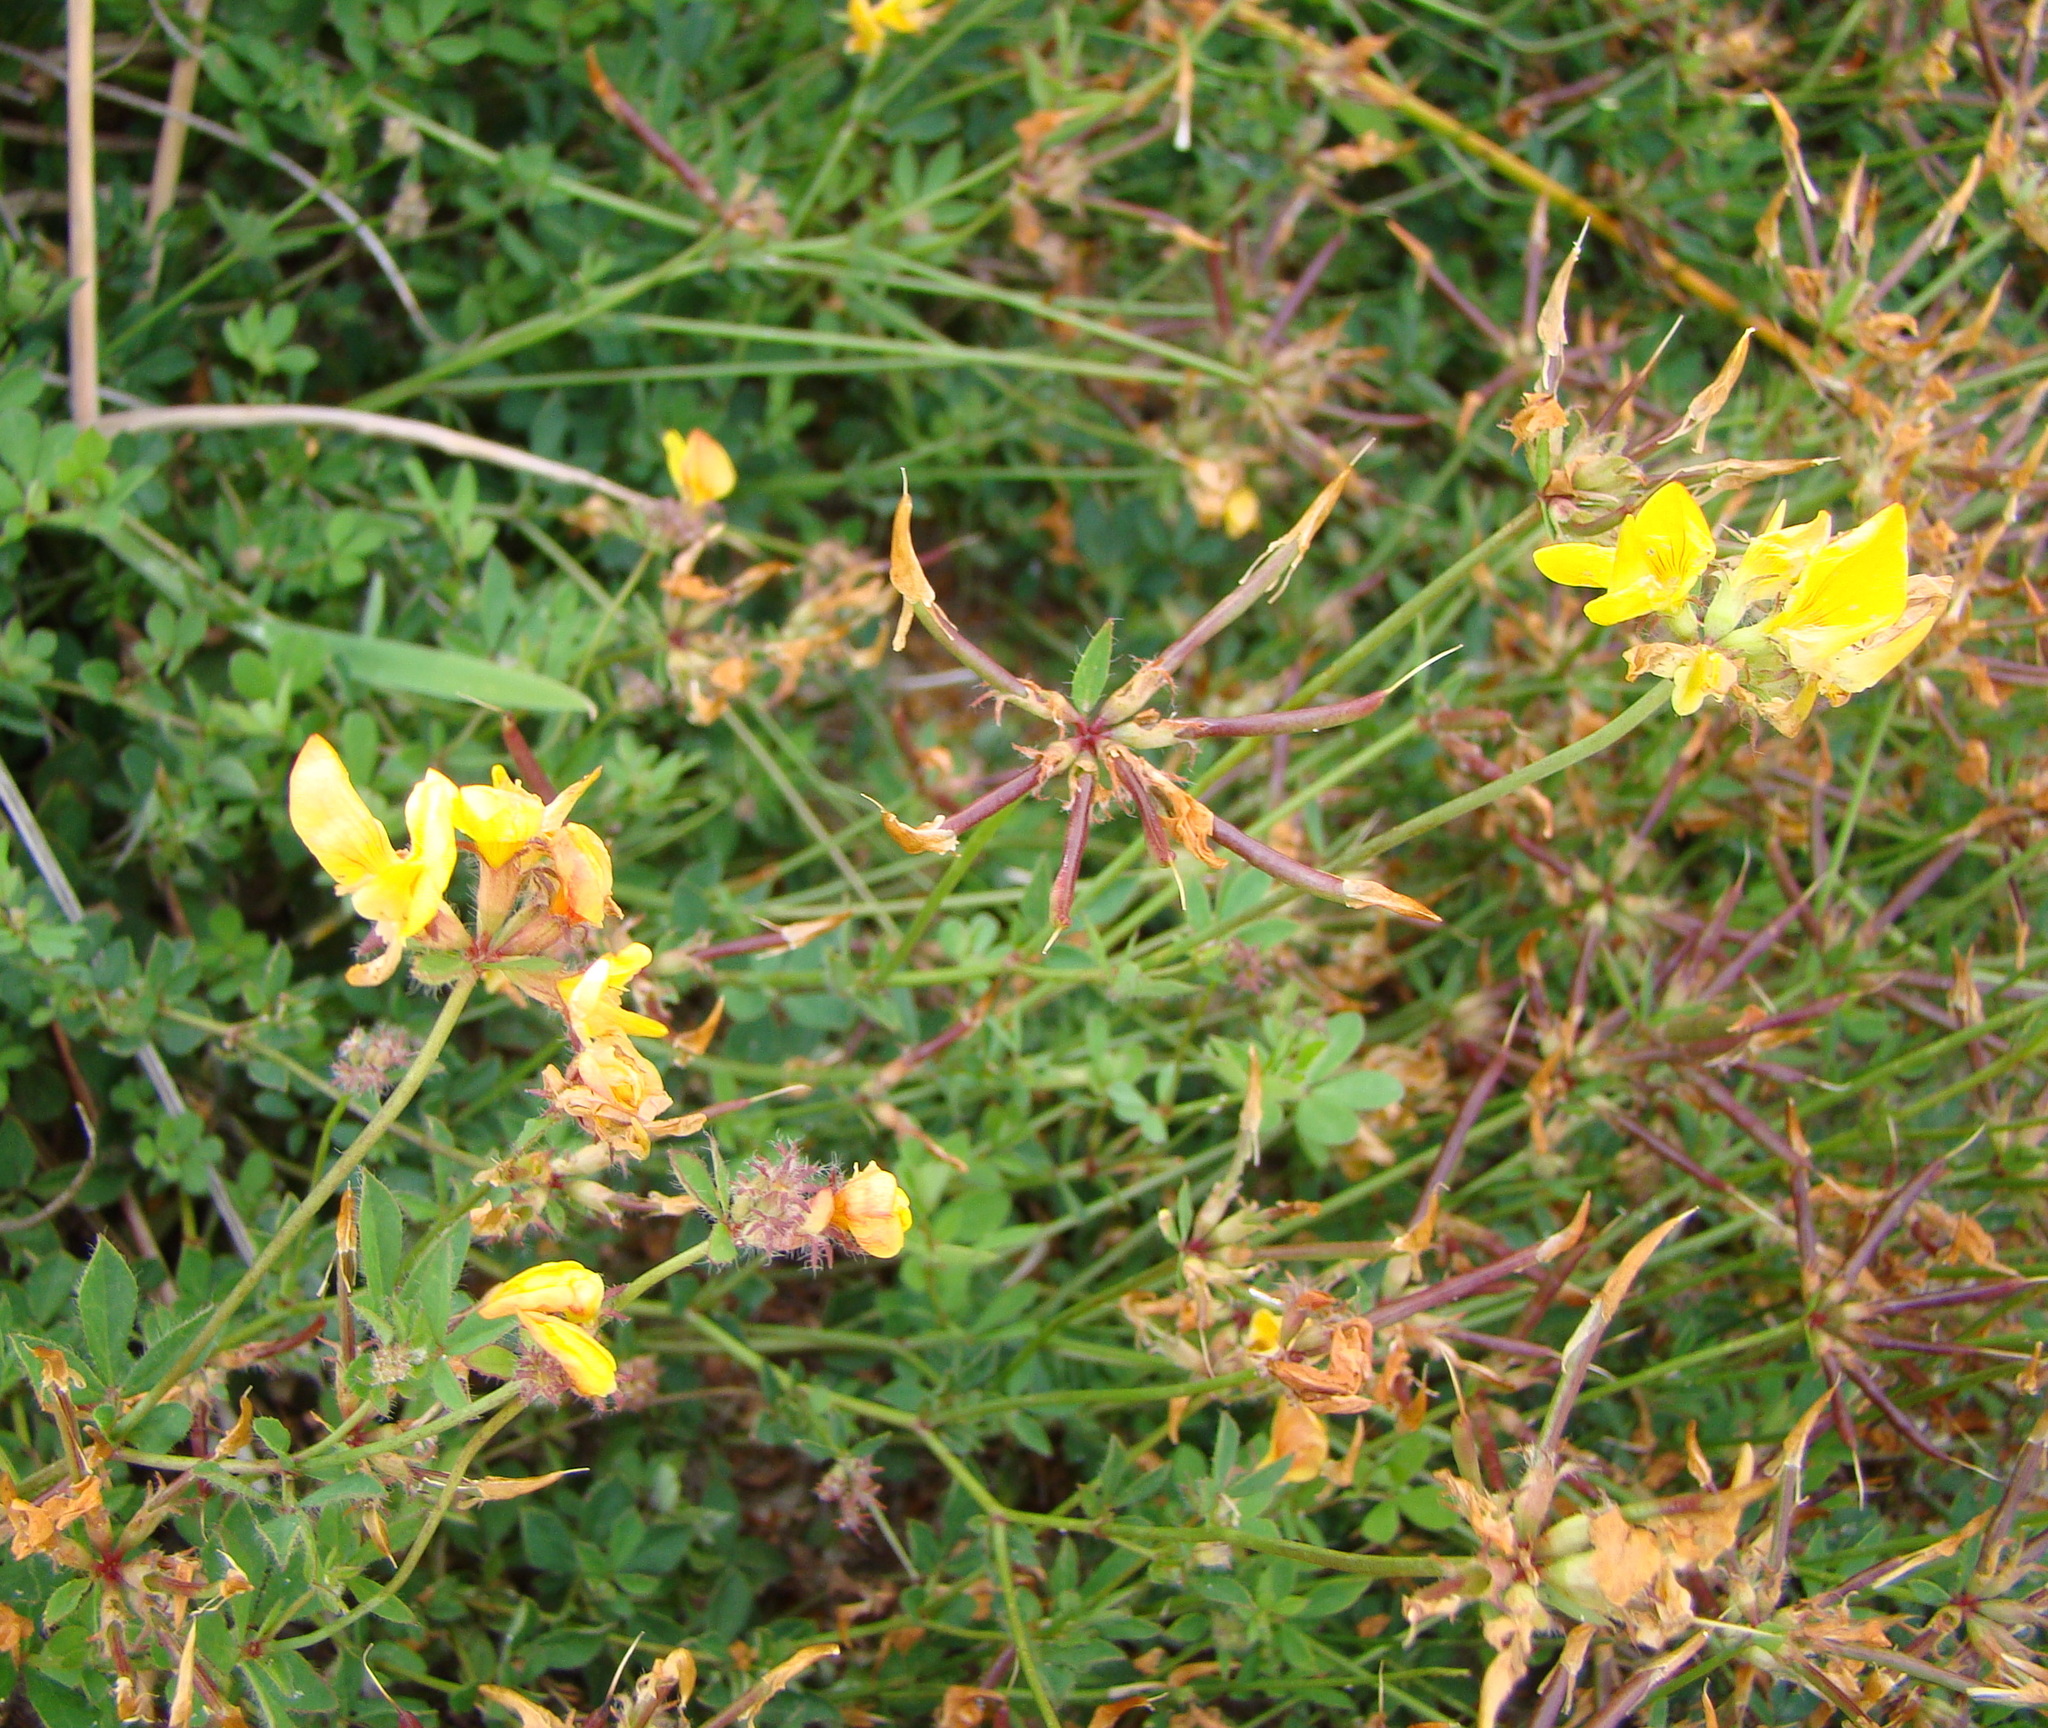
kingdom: Plantae
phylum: Tracheophyta
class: Magnoliopsida
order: Fabales
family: Fabaceae
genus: Lotus
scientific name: Lotus pedunculatus
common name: Greater birdsfoot-trefoil
